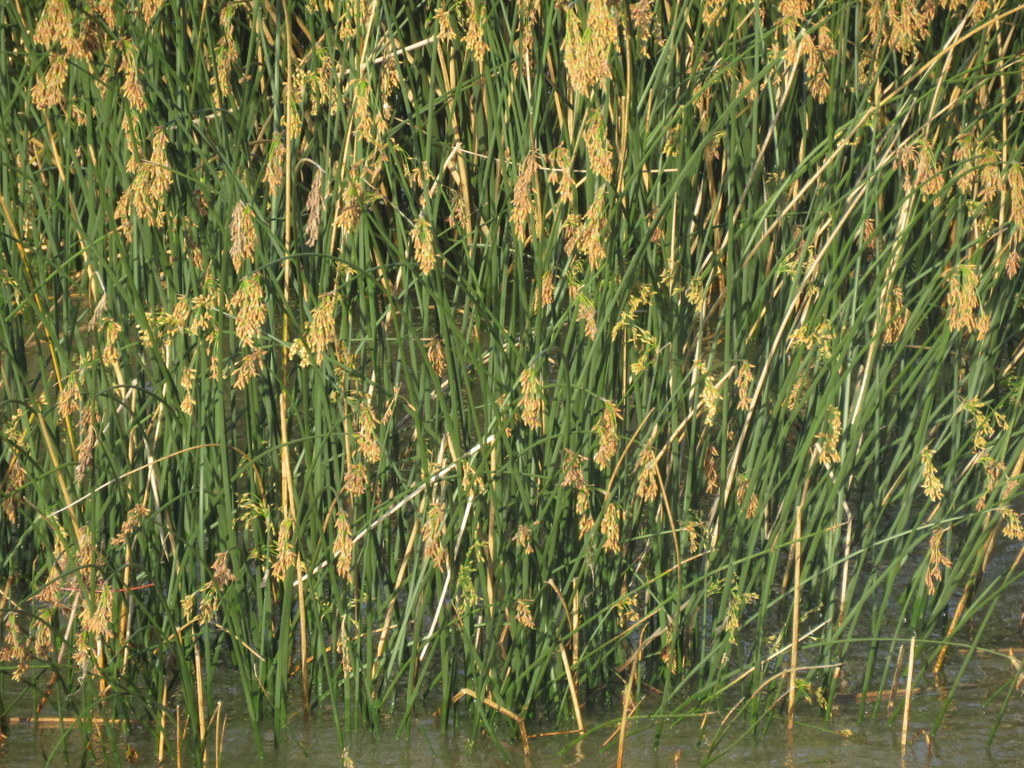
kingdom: Plantae
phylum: Tracheophyta
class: Liliopsida
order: Poales
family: Cyperaceae
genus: Schoenoplectus
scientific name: Schoenoplectus californicus
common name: California bulrush
